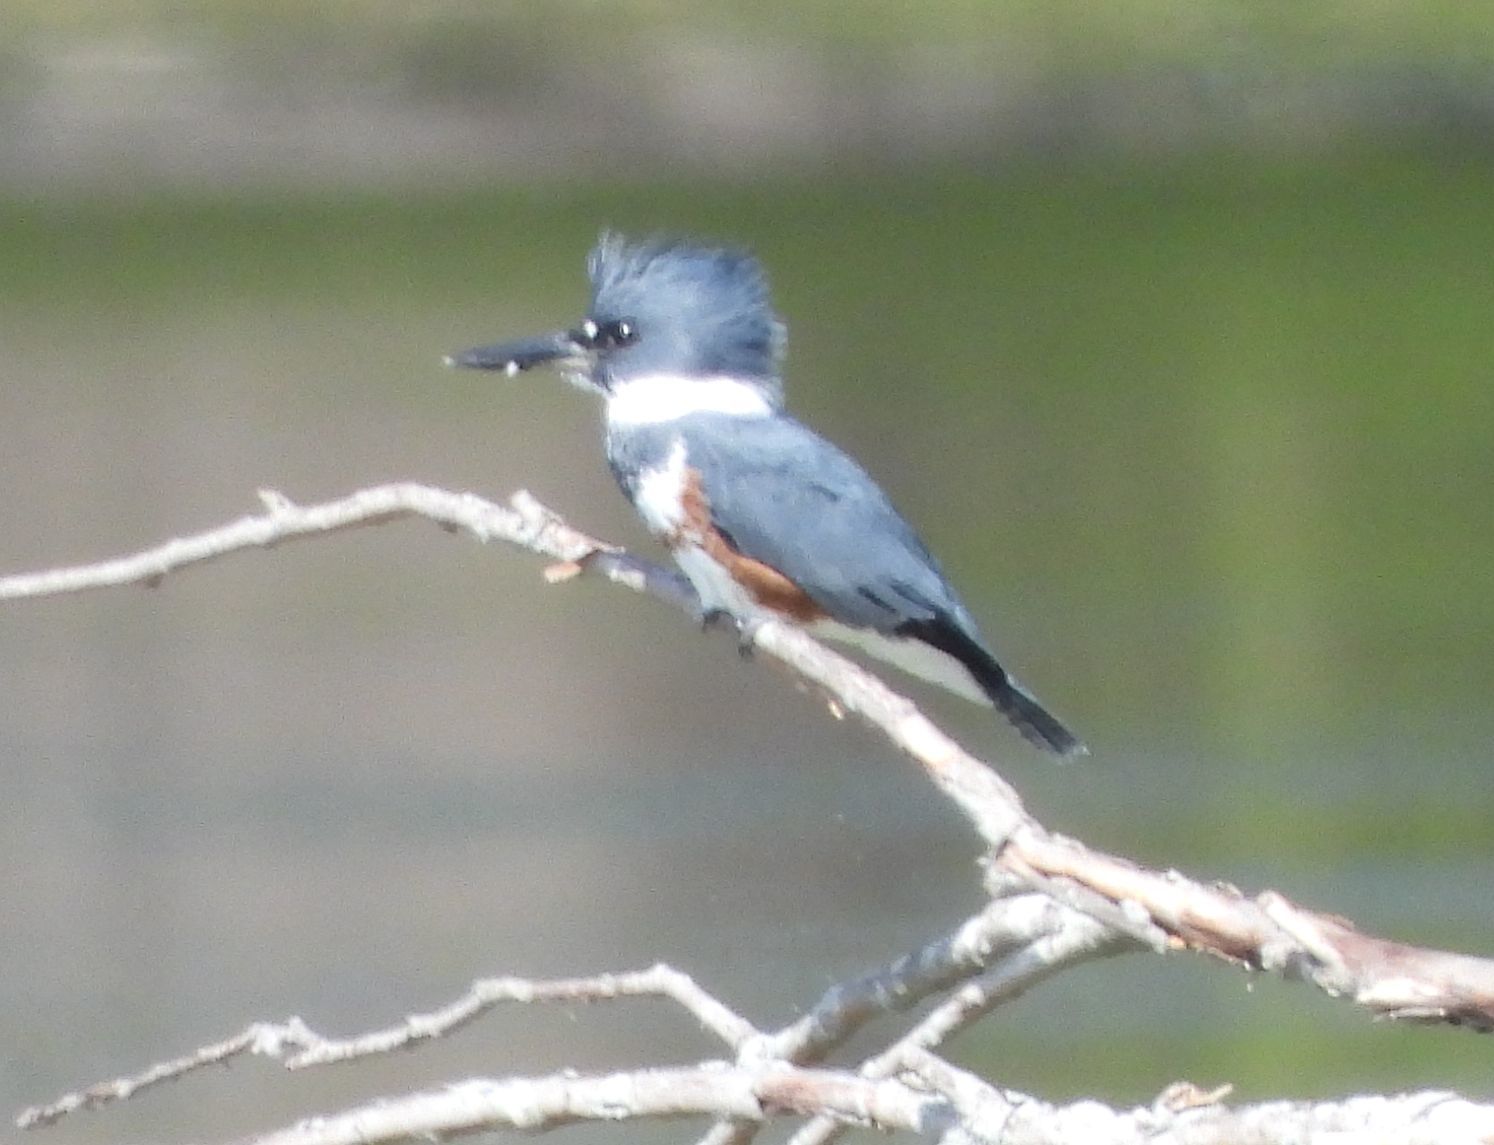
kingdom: Animalia
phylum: Chordata
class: Aves
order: Coraciiformes
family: Alcedinidae
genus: Megaceryle
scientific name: Megaceryle alcyon
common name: Belted kingfisher
